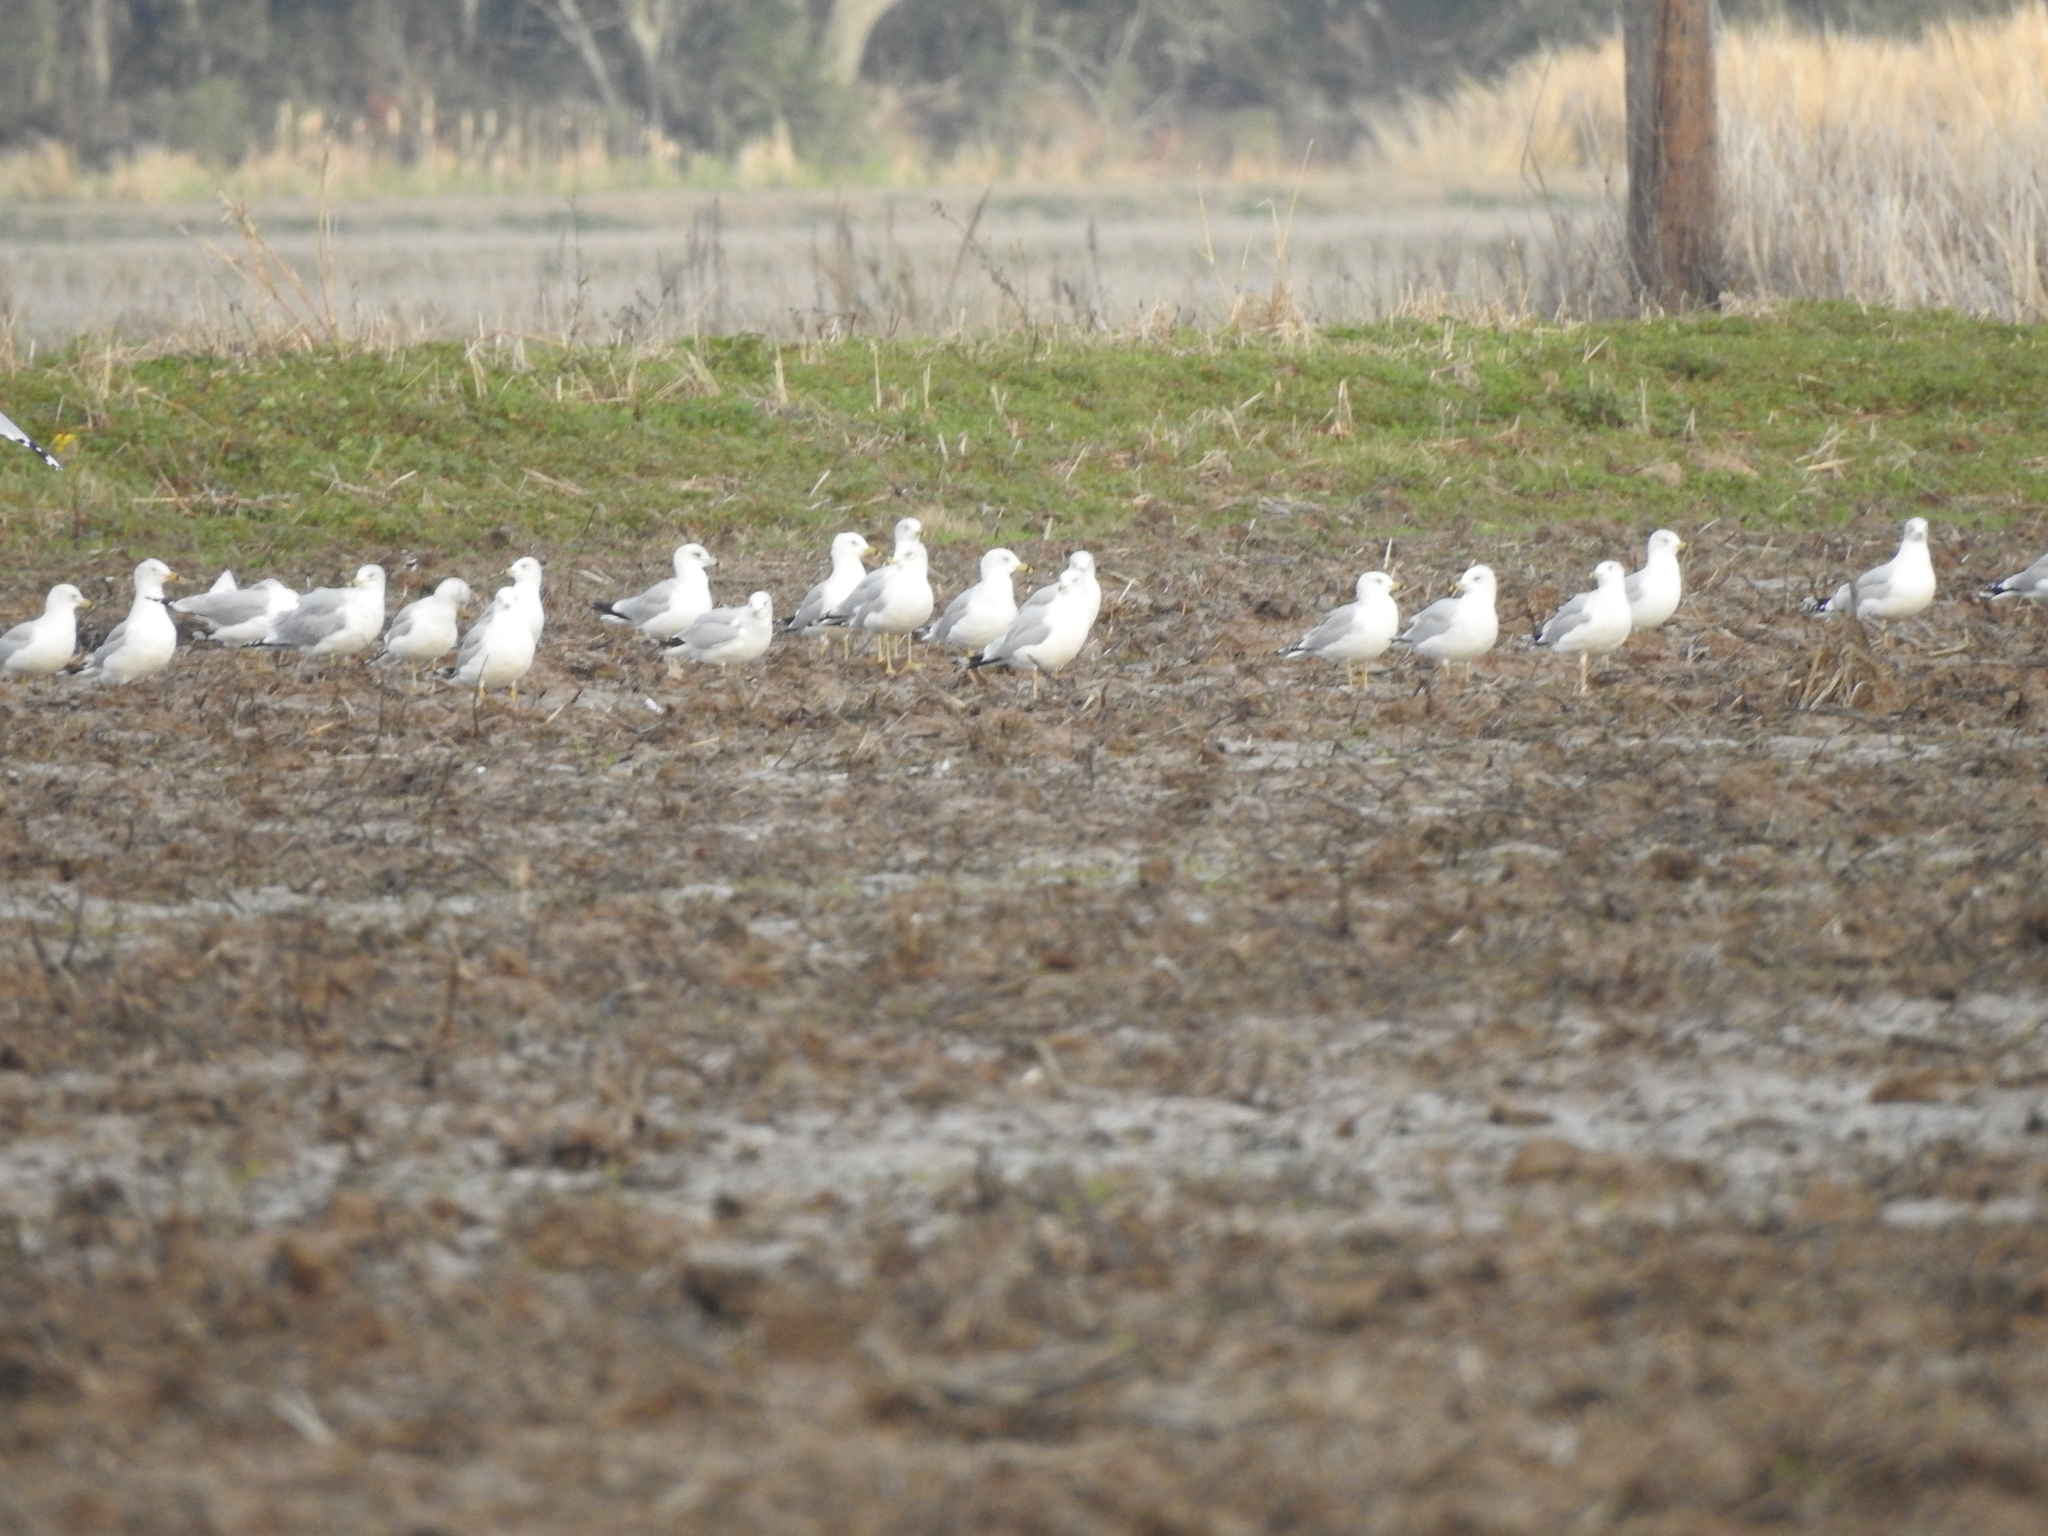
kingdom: Animalia
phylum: Chordata
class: Aves
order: Charadriiformes
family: Laridae
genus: Larus
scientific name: Larus delawarensis
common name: Ring-billed gull
